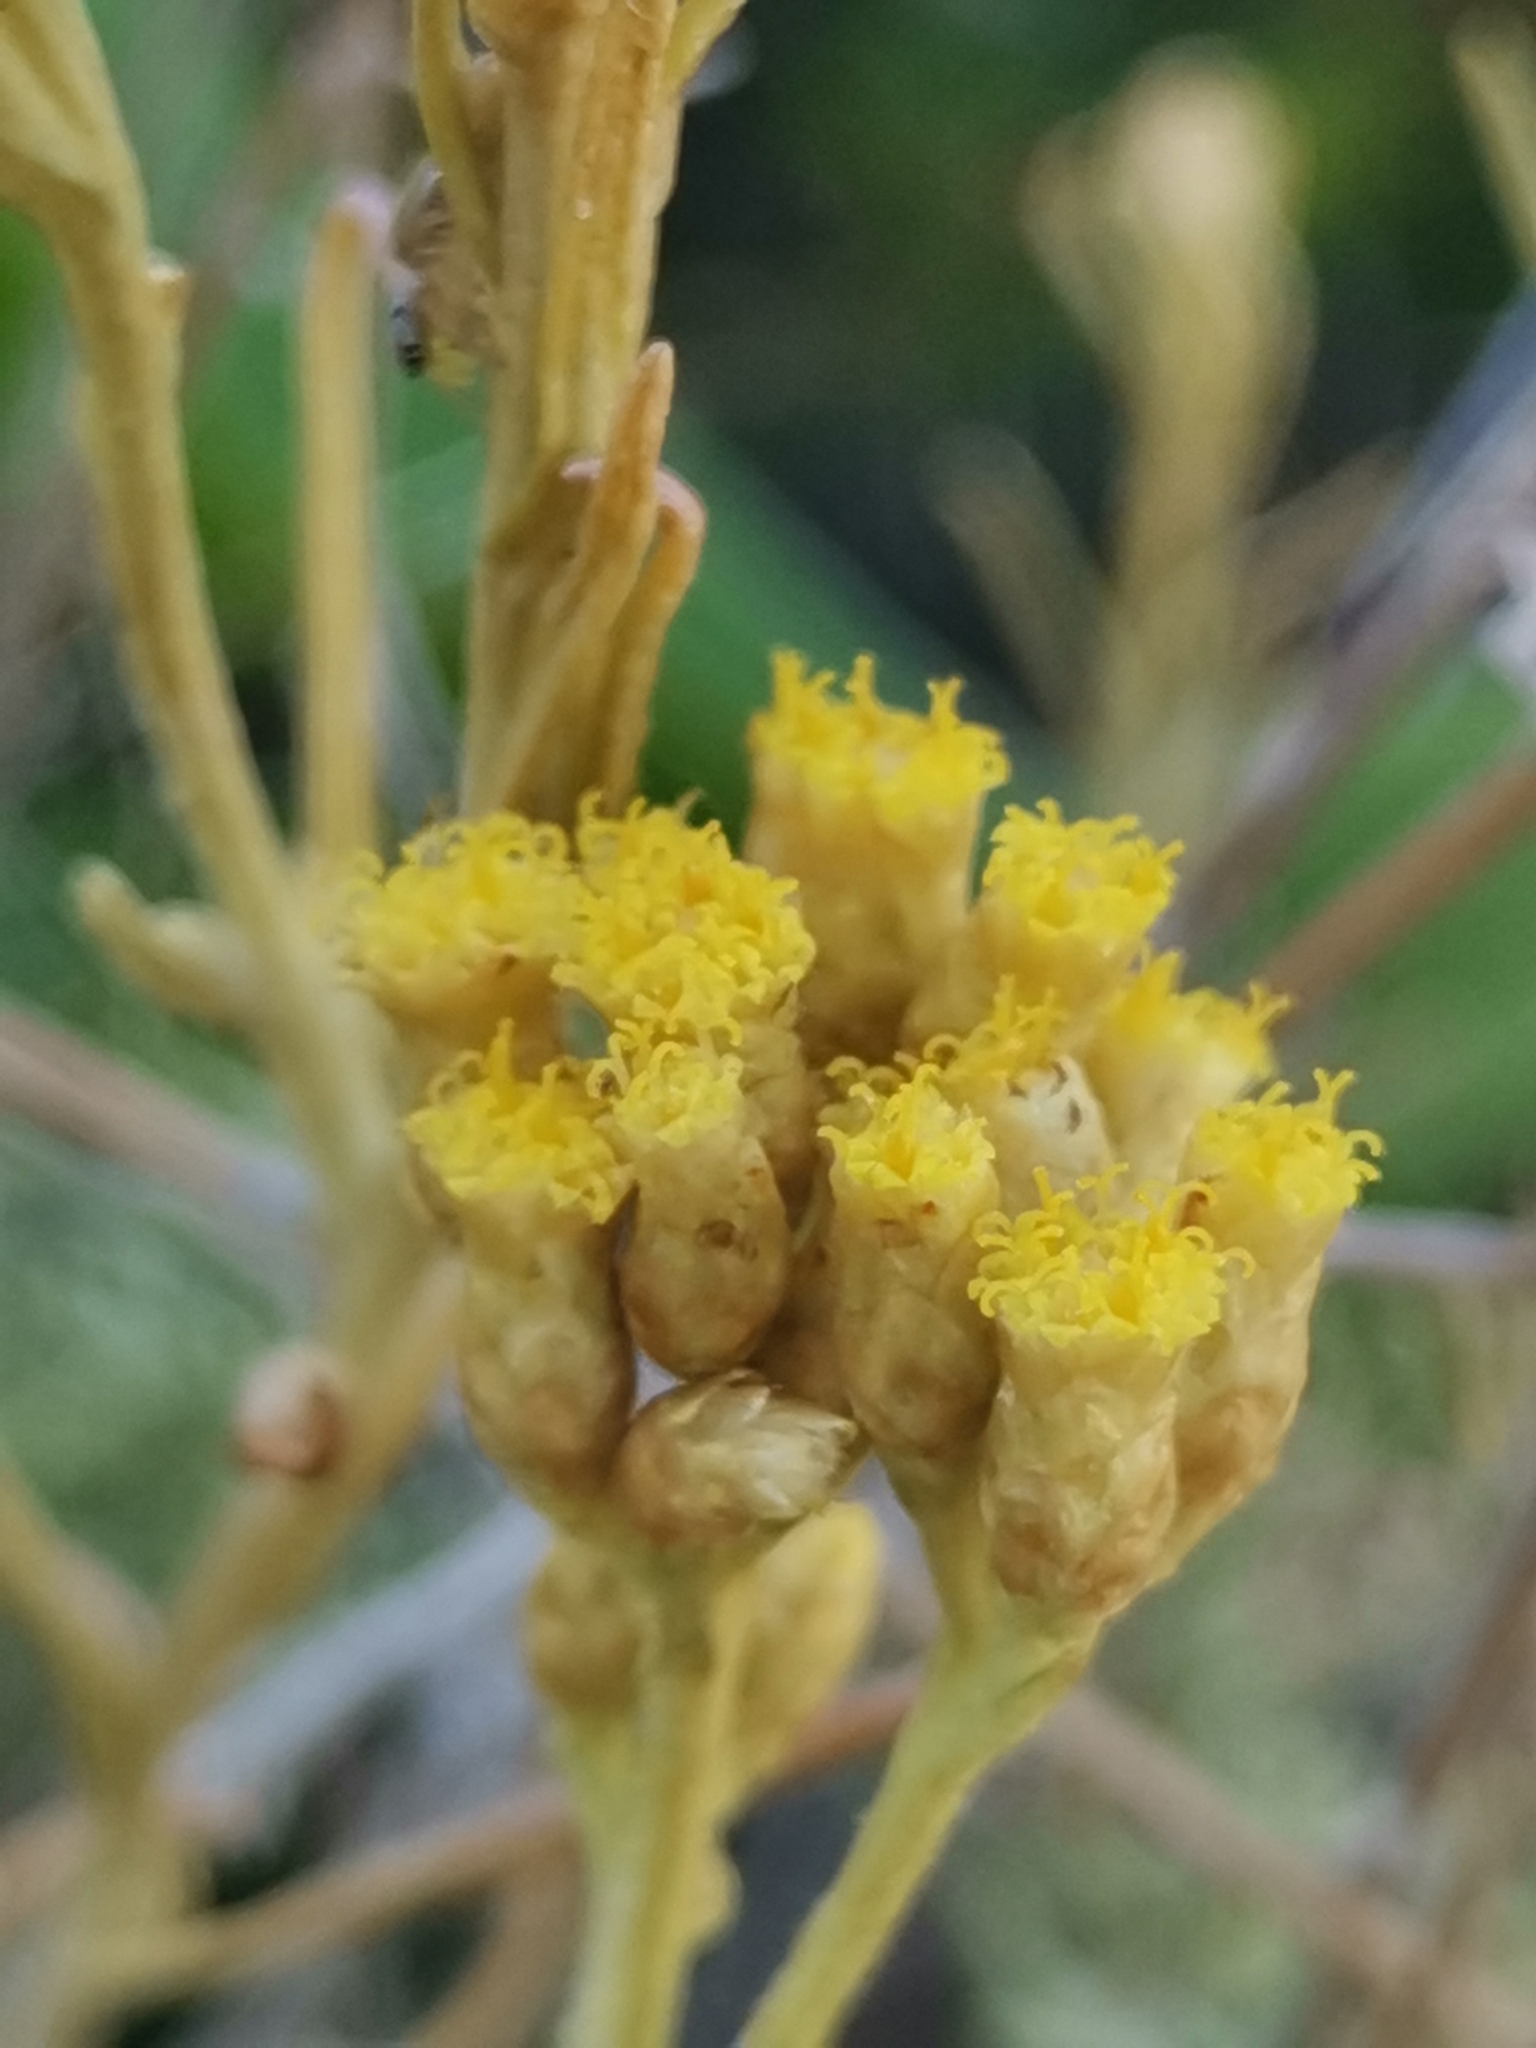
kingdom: Plantae
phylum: Tracheophyta
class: Magnoliopsida
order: Asterales
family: Asteraceae
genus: Helichrysum
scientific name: Helichrysum italicum
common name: Curryplant
